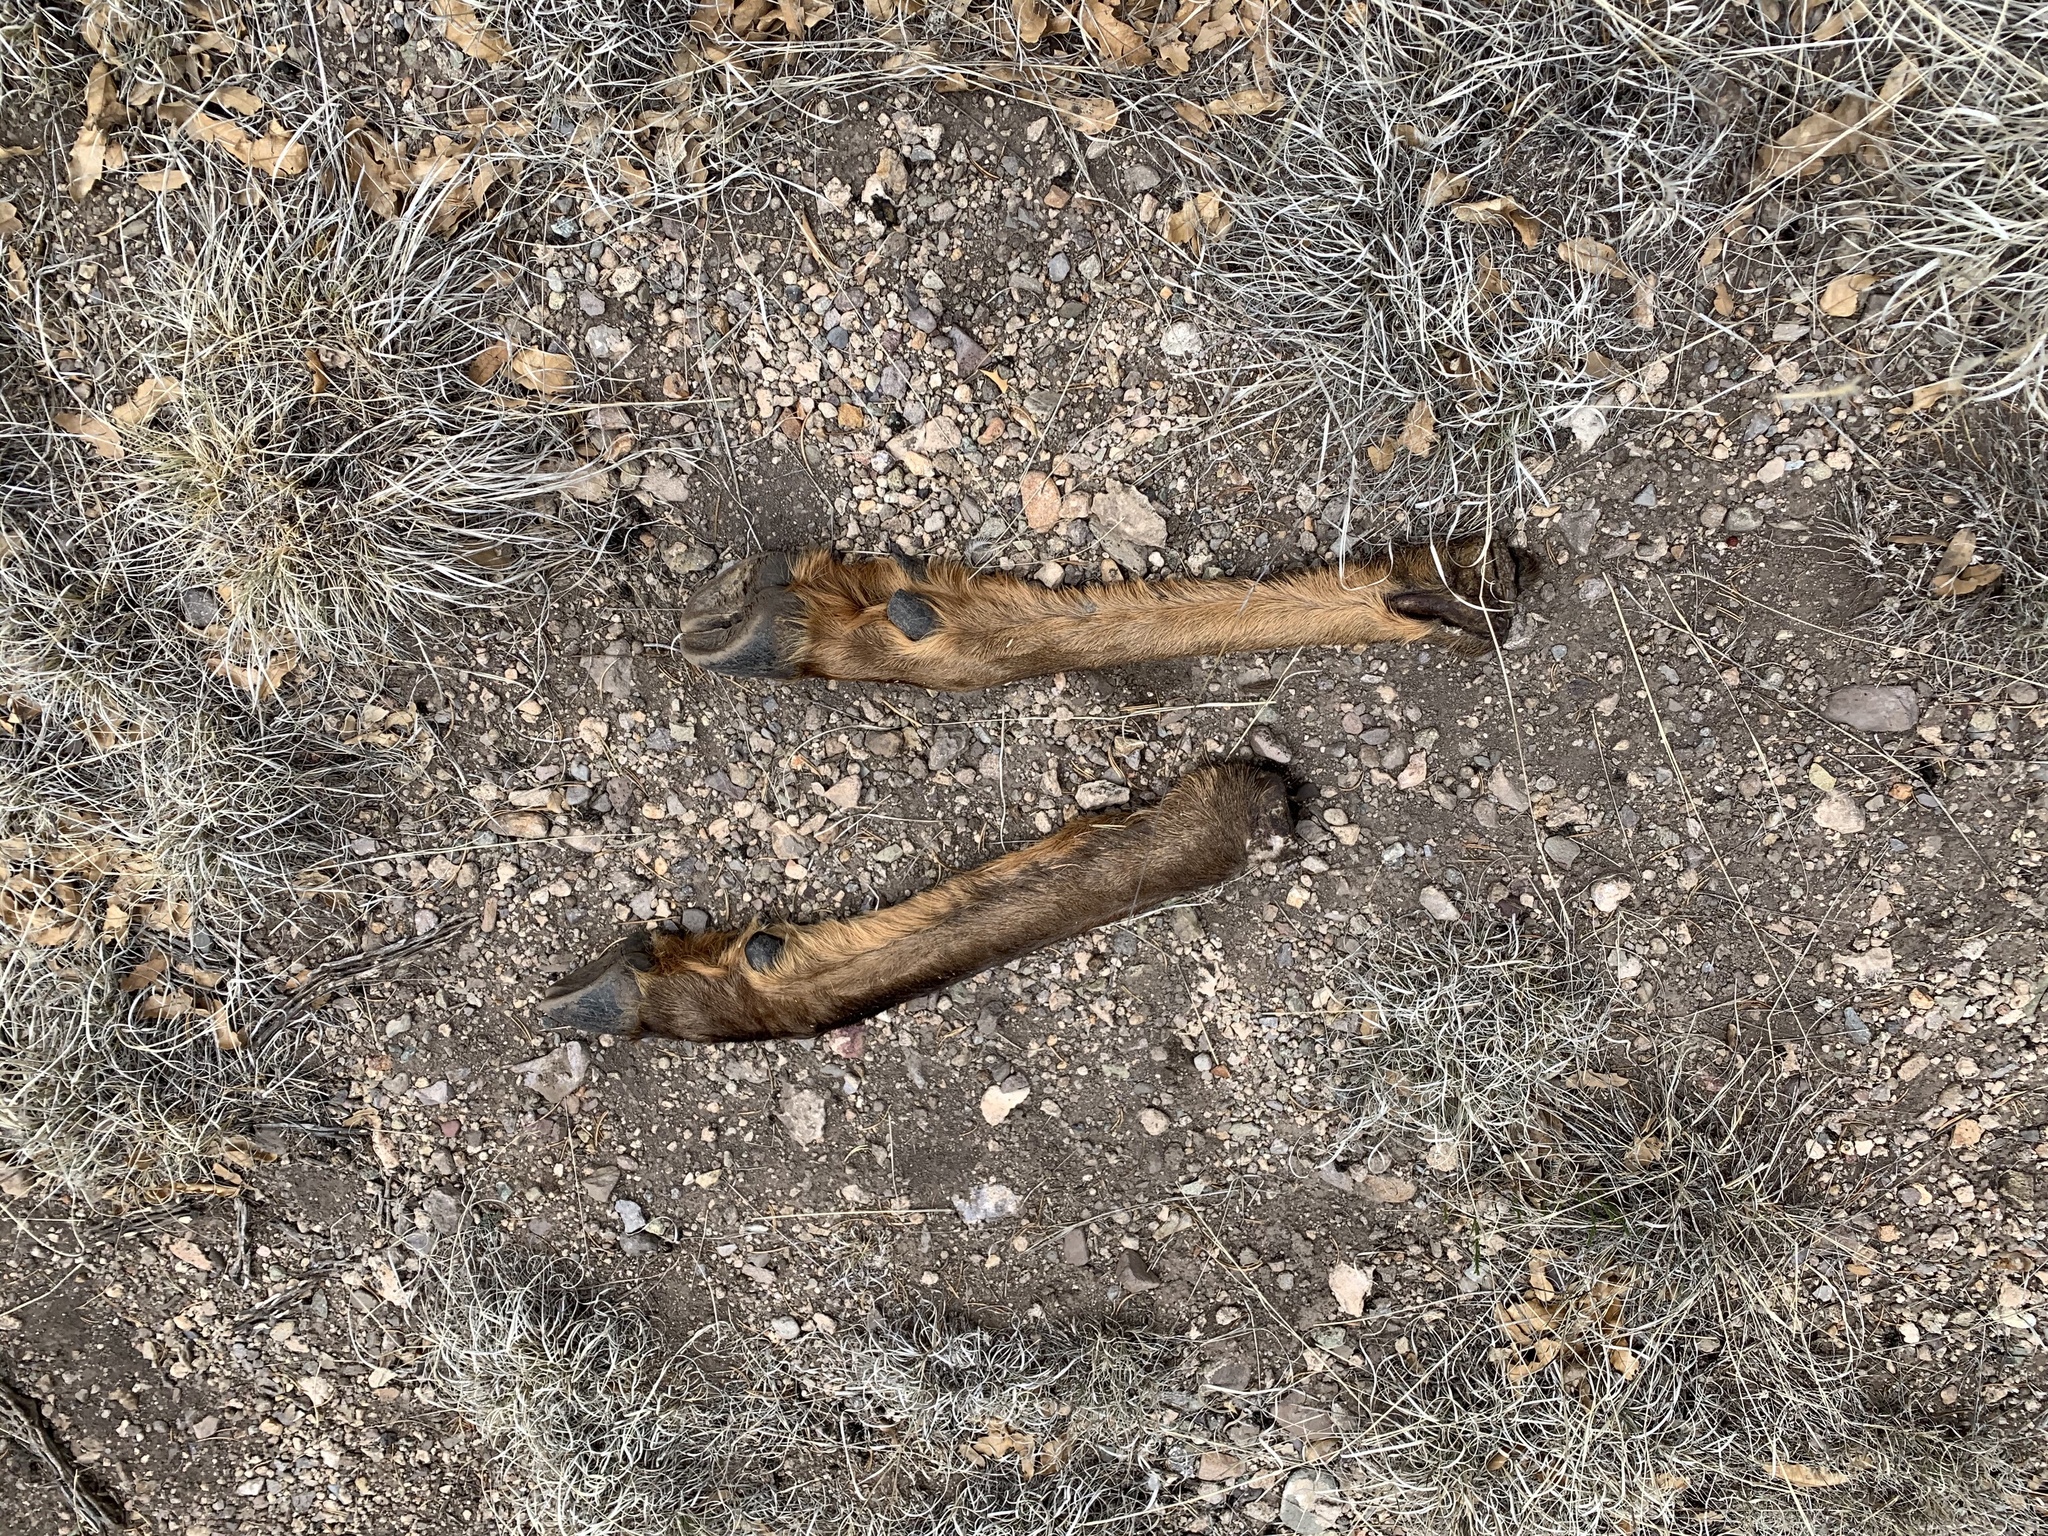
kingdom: Animalia
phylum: Chordata
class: Mammalia
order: Artiodactyla
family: Cervidae
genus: Cervus
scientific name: Cervus elaphus
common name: Red deer
